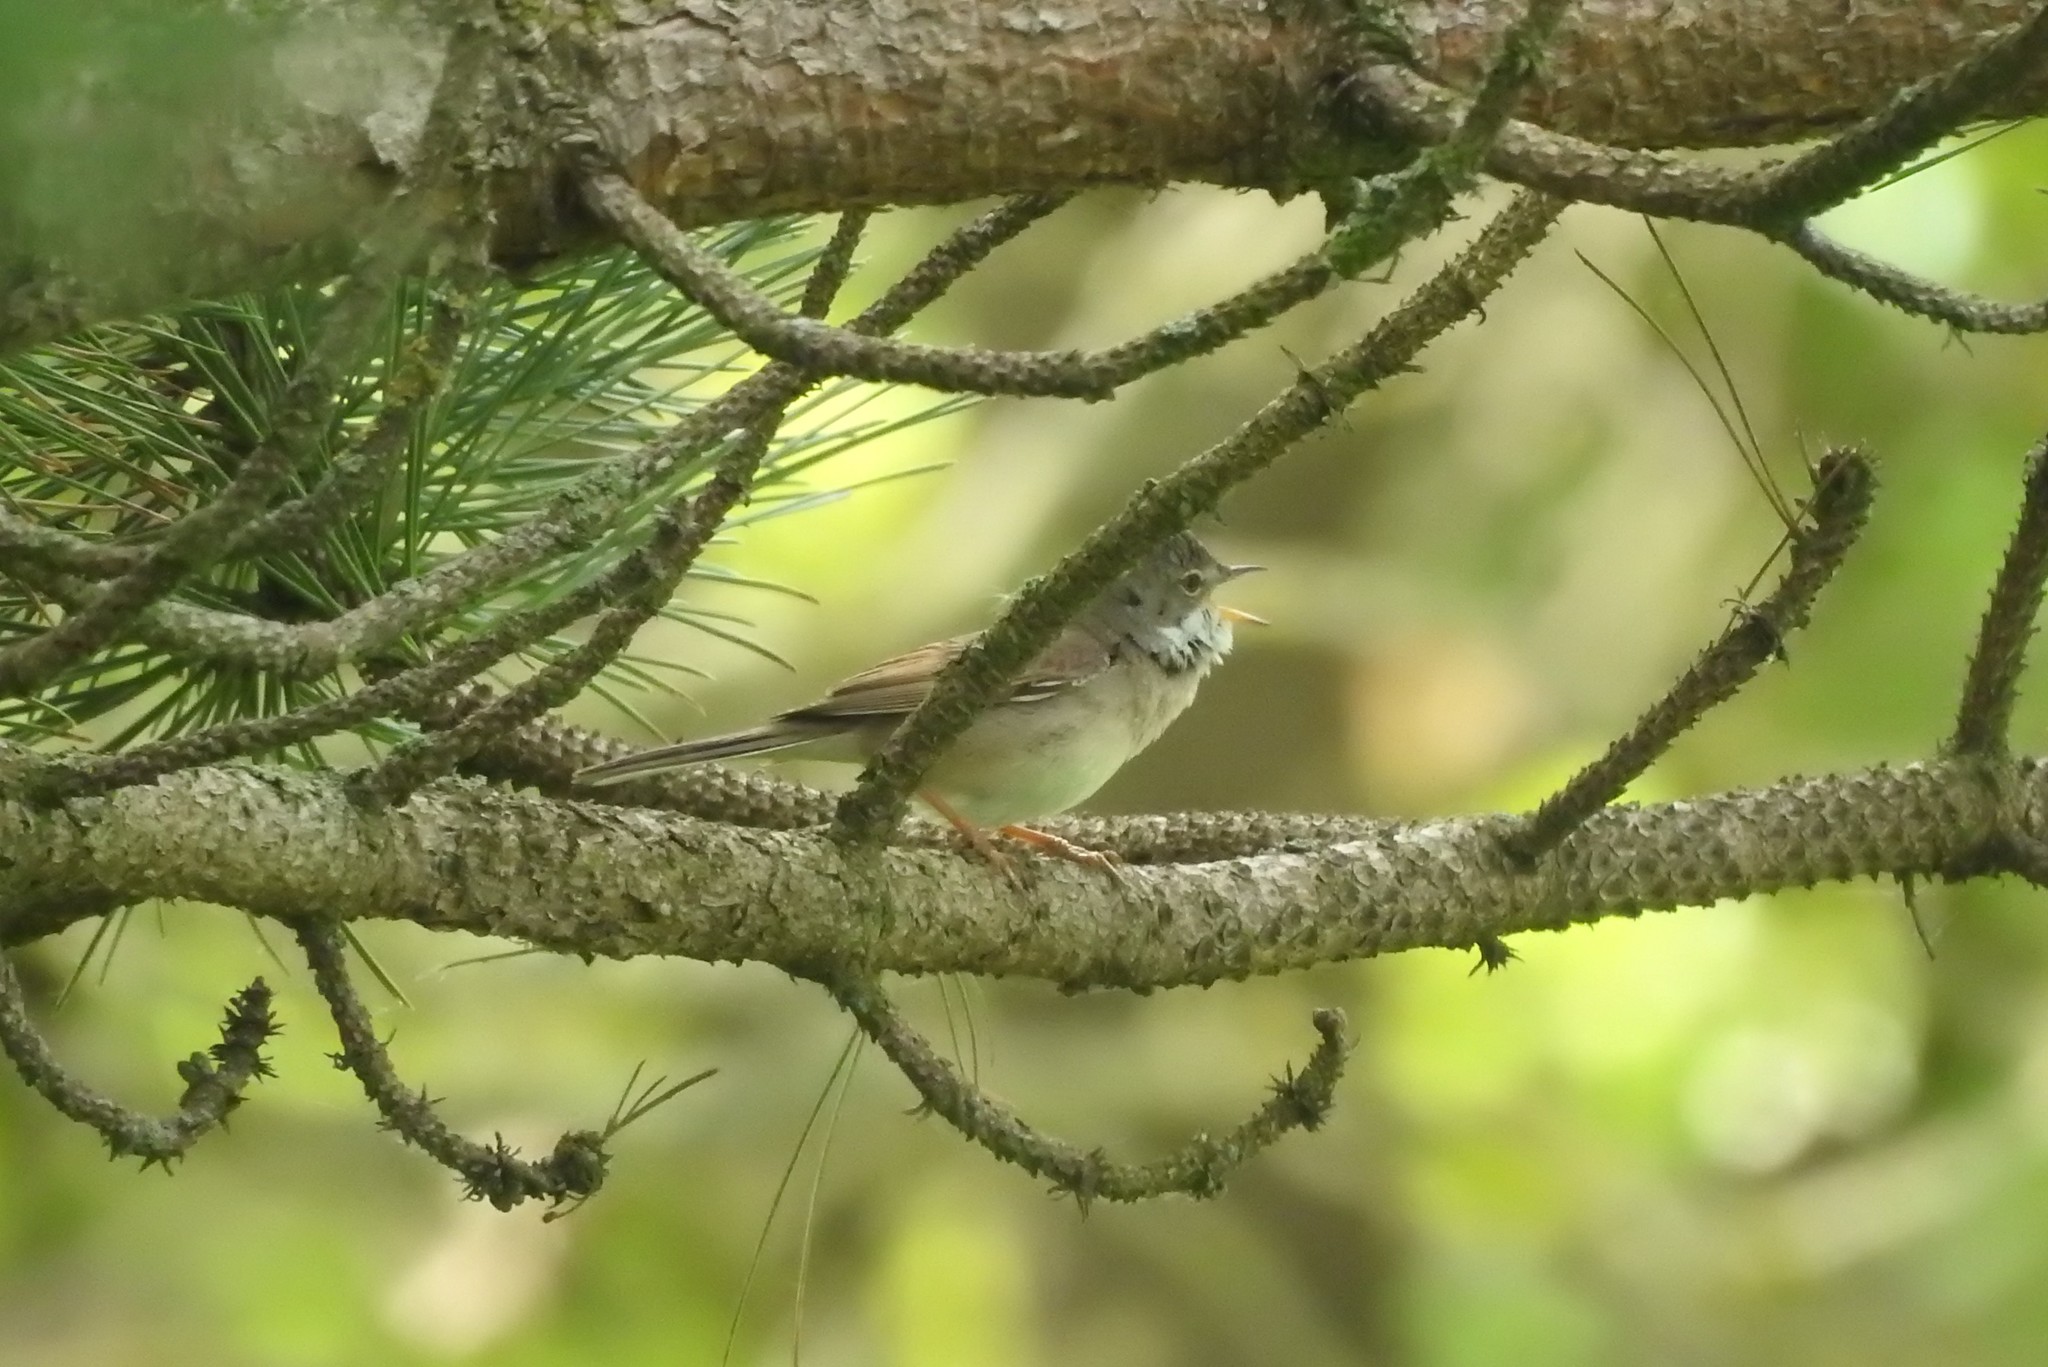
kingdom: Animalia
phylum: Chordata
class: Aves
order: Passeriformes
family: Sylviidae
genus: Sylvia
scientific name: Sylvia communis
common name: Common whitethroat
